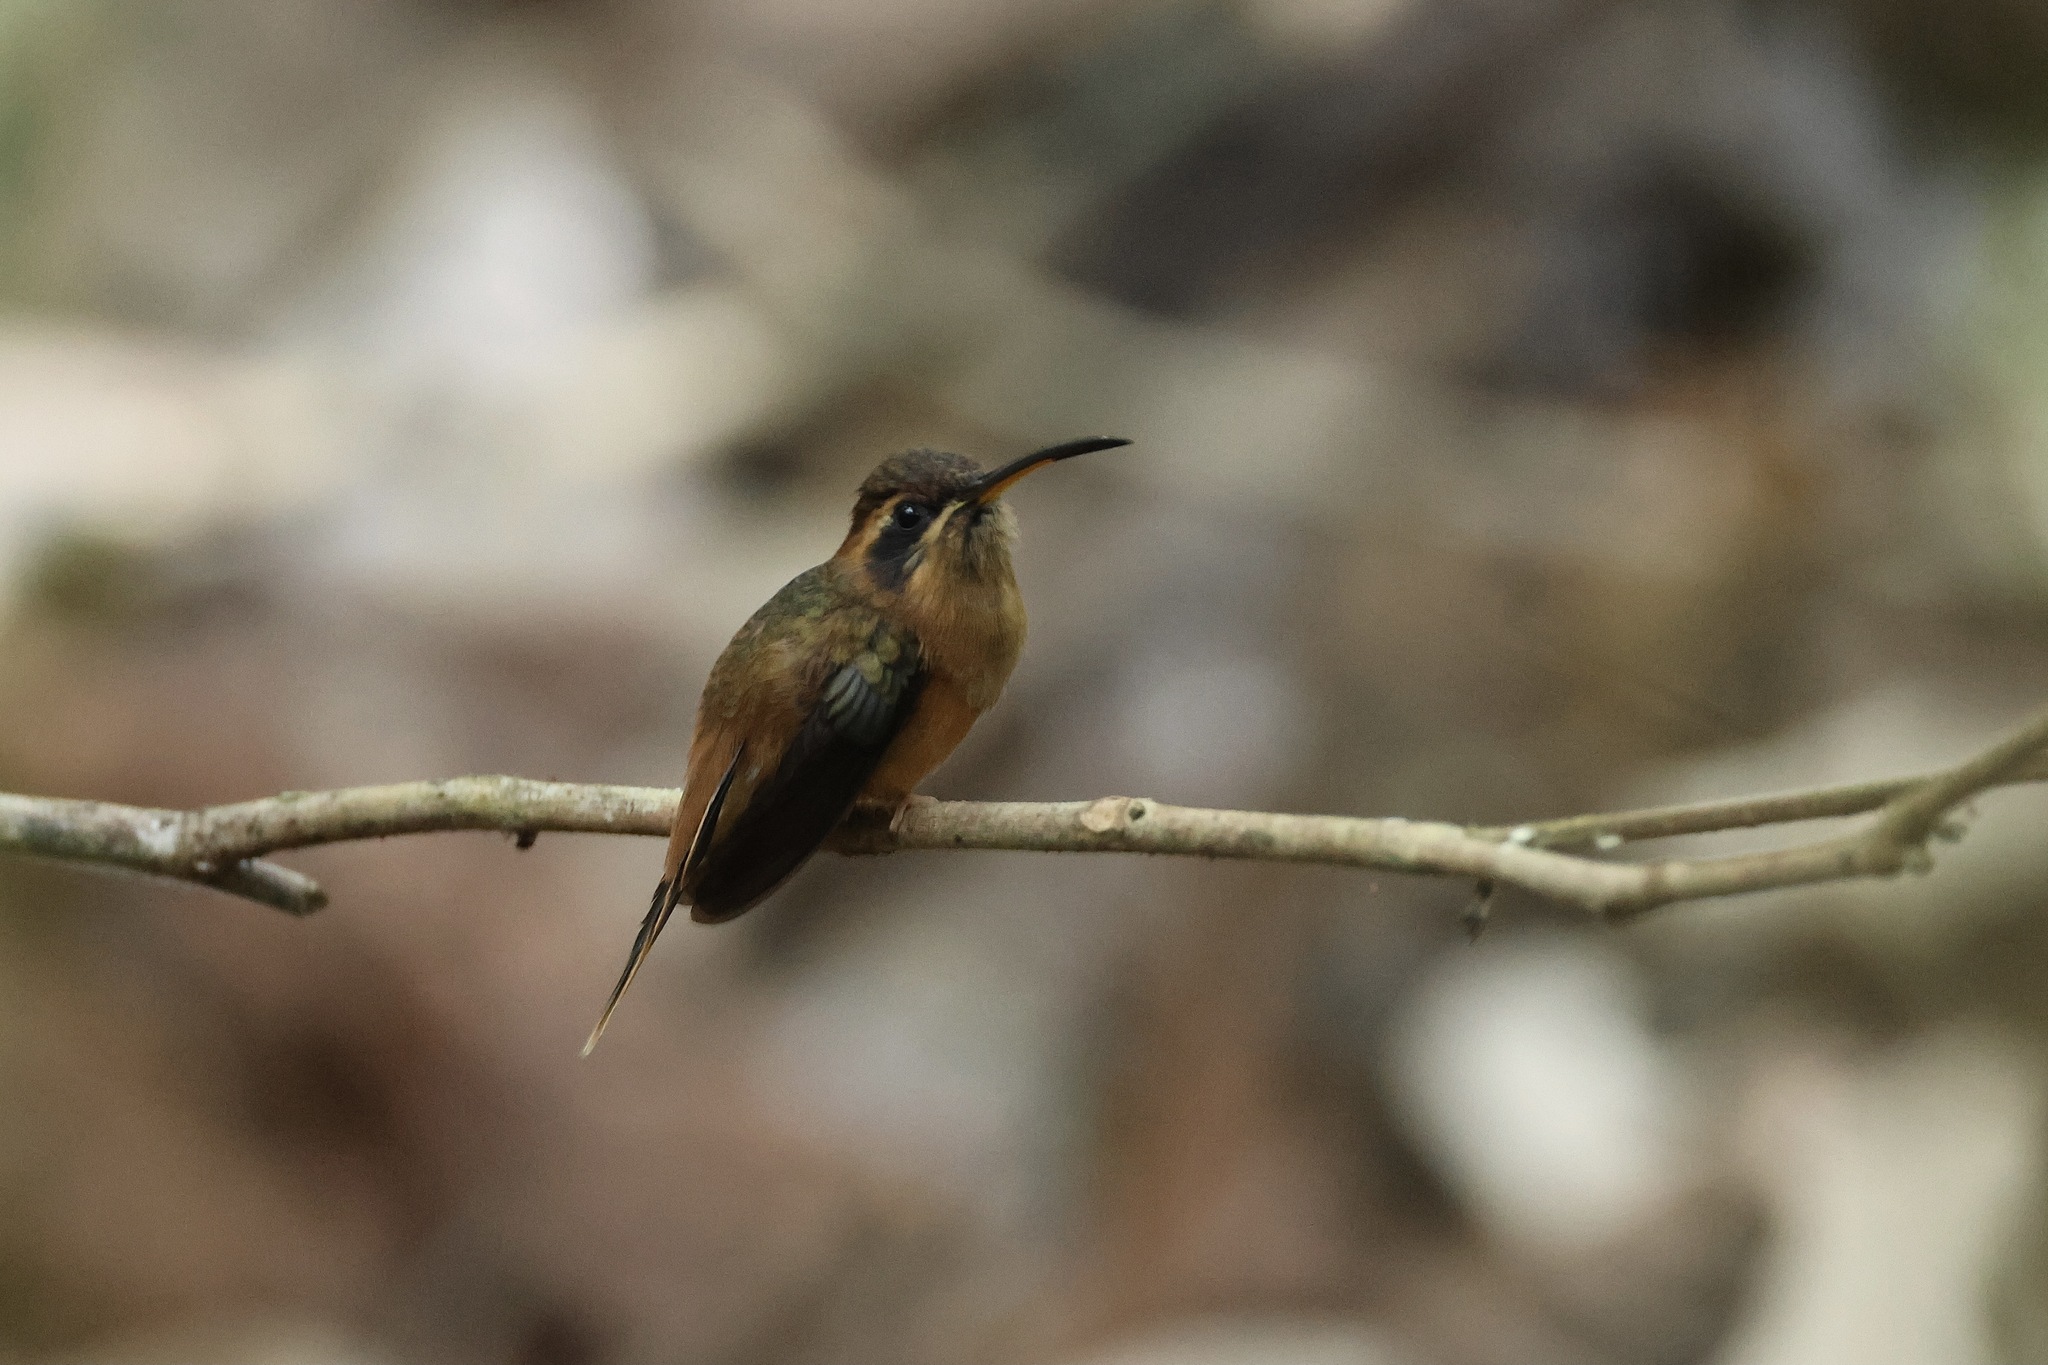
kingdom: Animalia
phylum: Chordata
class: Aves
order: Apodiformes
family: Trochilidae
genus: Phaethornis
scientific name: Phaethornis striigularis
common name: Stripe-throated hermit
